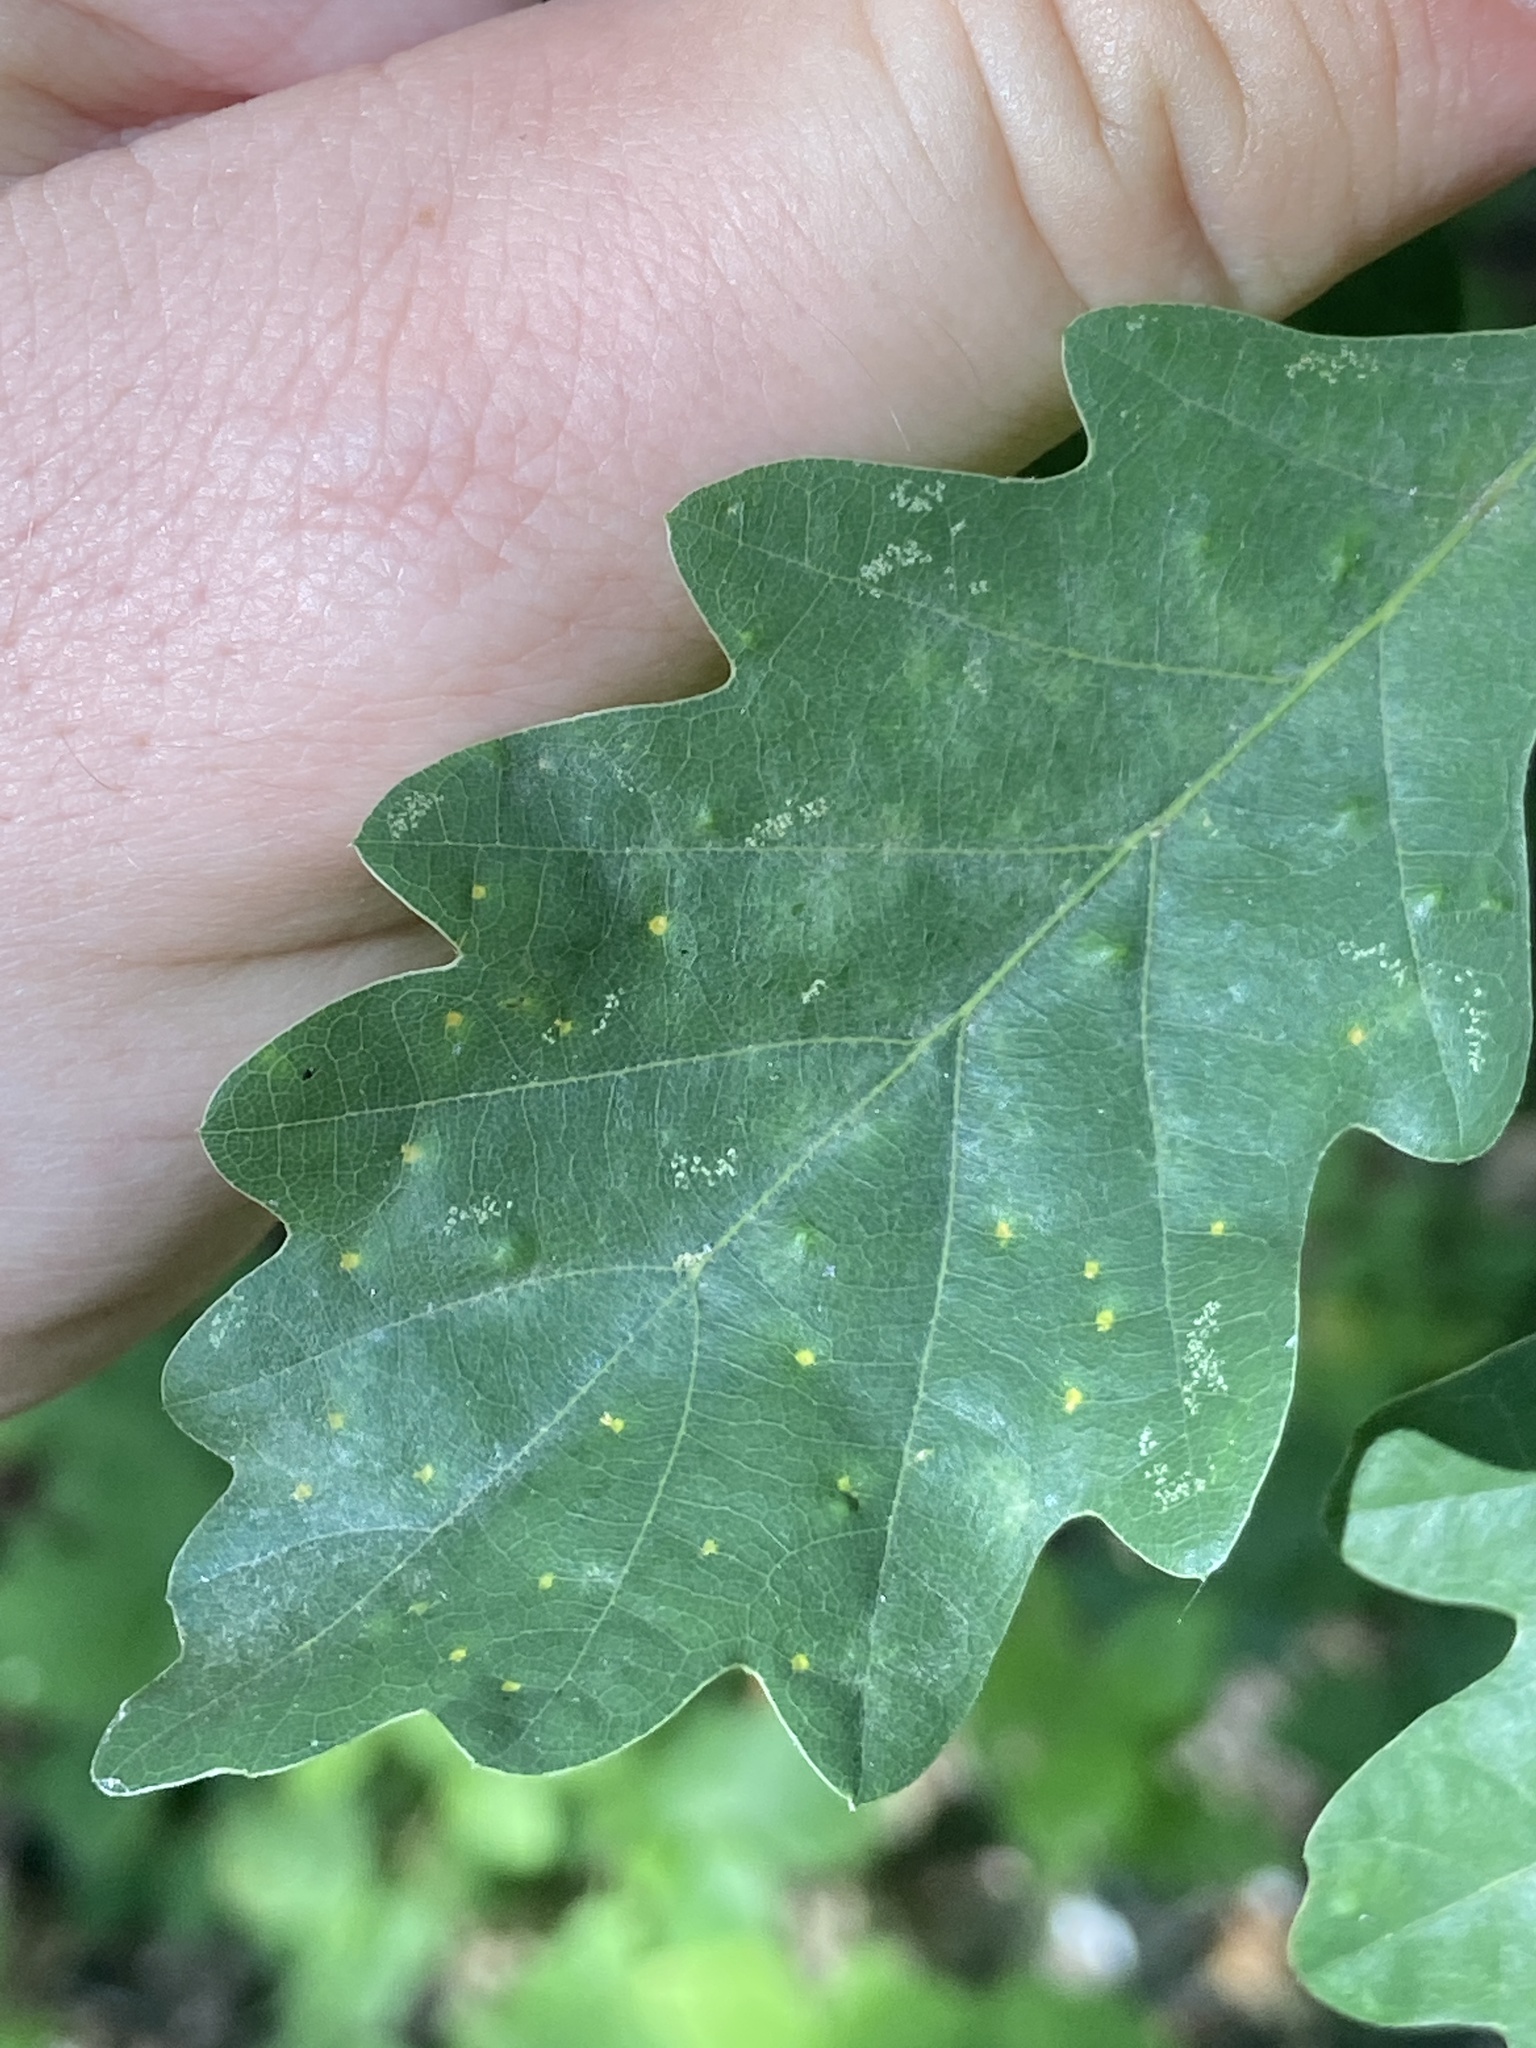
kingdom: Animalia
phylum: Arthropoda
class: Insecta
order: Hymenoptera
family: Cynipidae
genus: Neuroterus
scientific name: Neuroterus quercusbaccarum
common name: Common spangle gall
